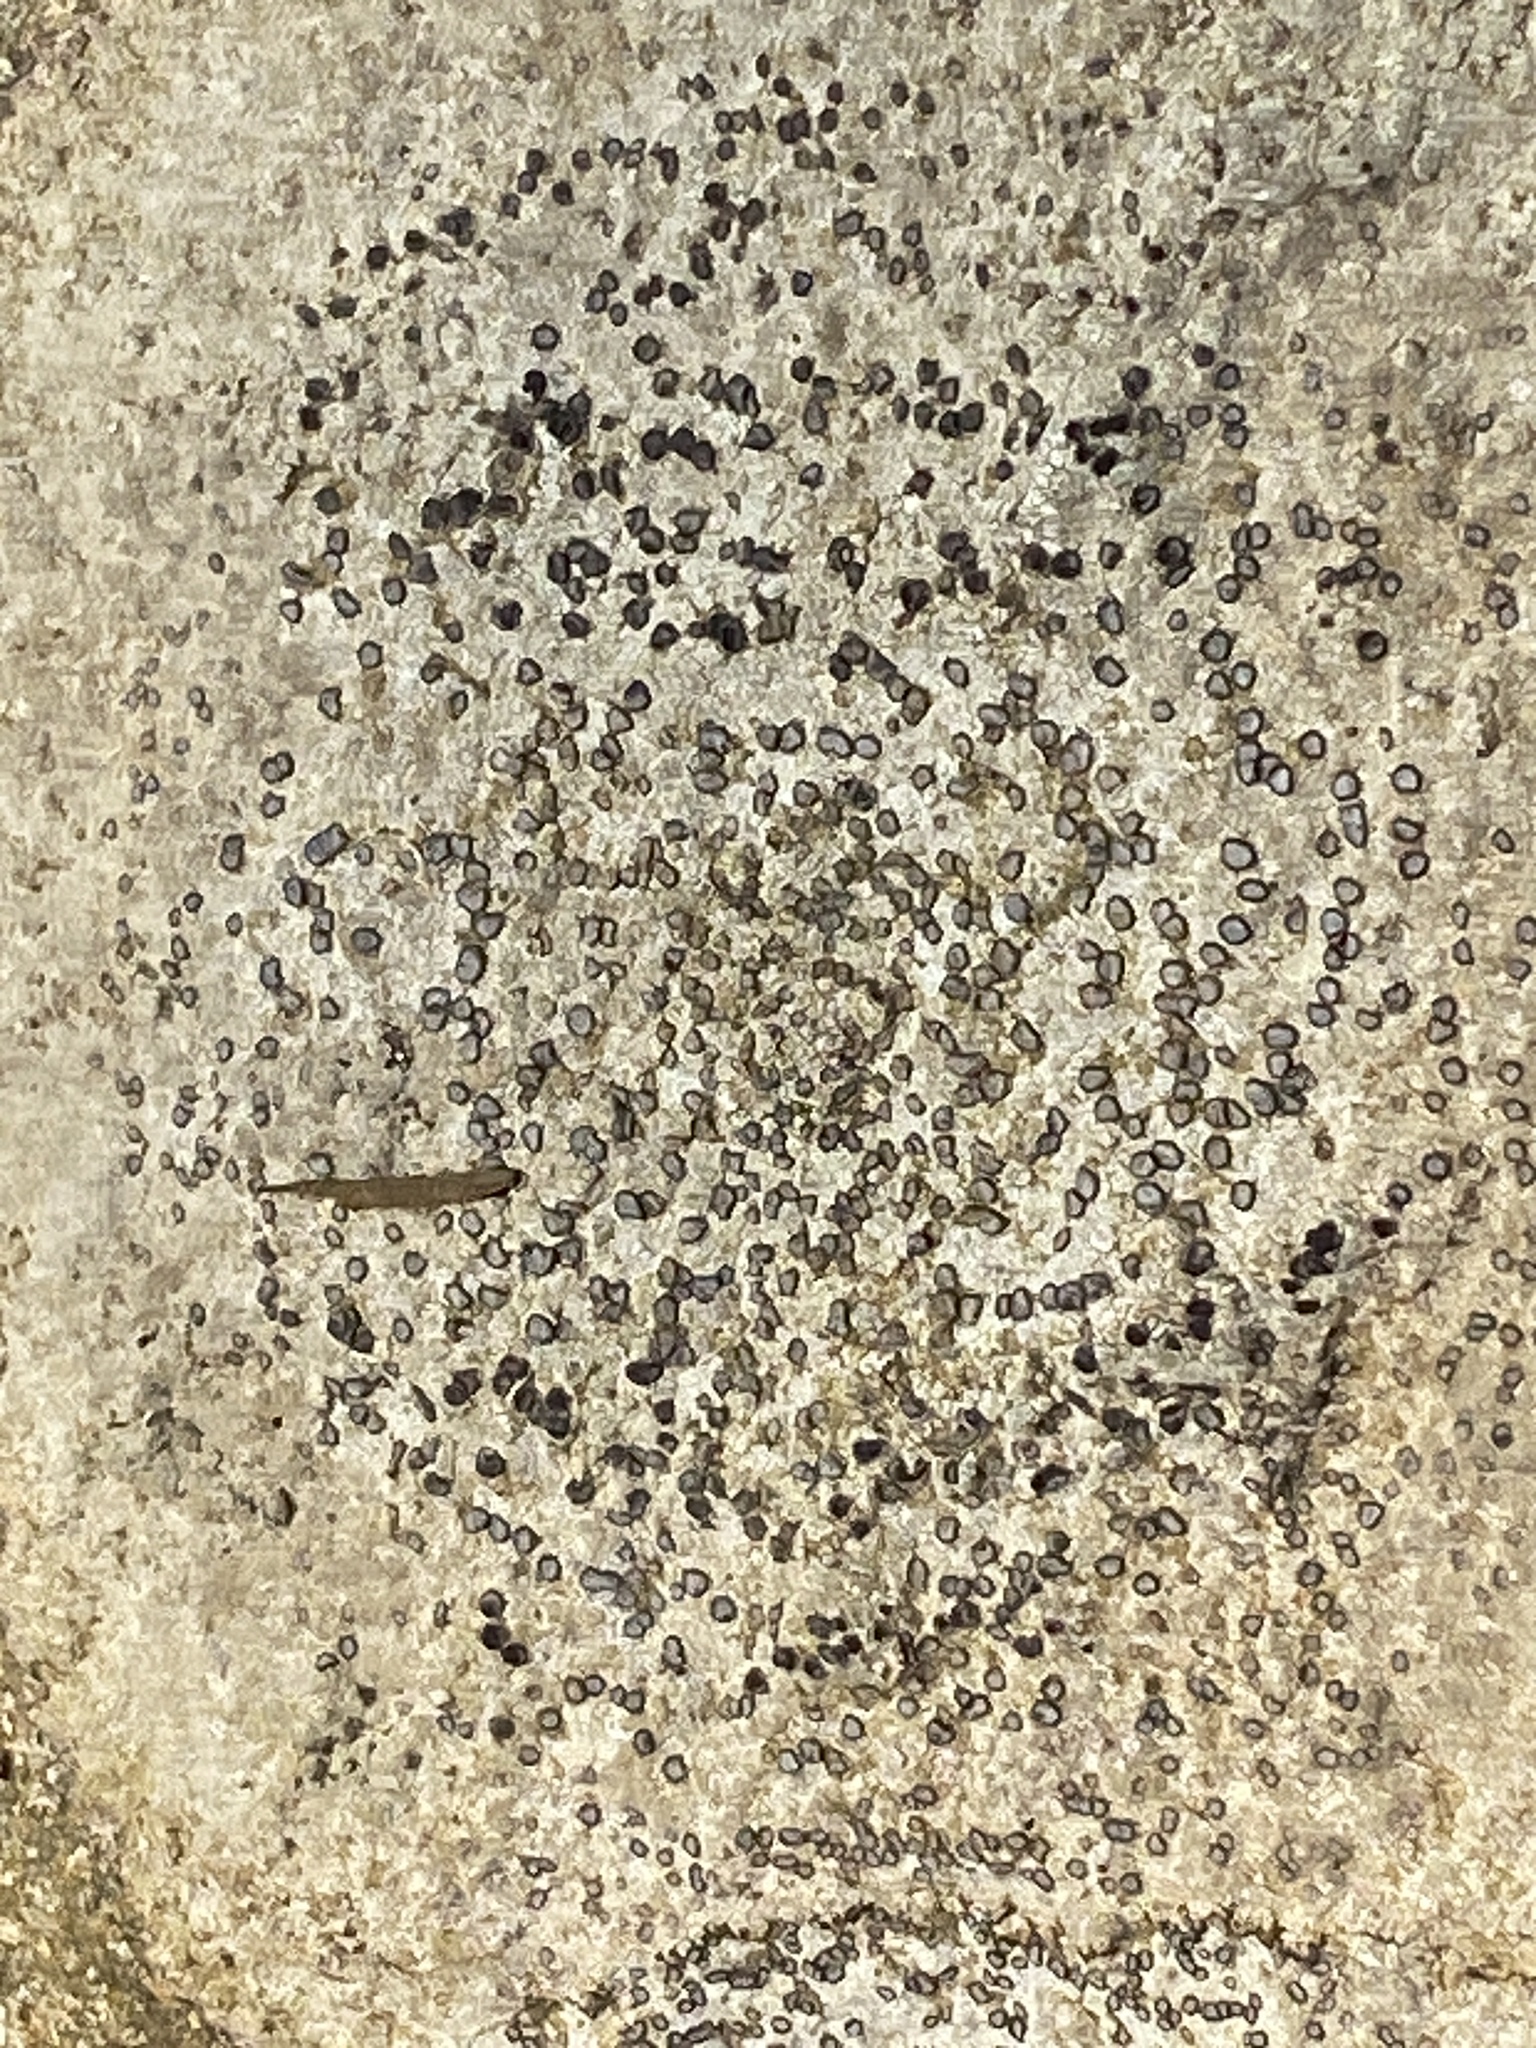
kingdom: Fungi
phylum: Ascomycota
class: Lecanoromycetes
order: Lecideales
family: Lecideaceae
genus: Porpidia
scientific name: Porpidia albocaerulescens
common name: Smokey-eyed boulder lichen
